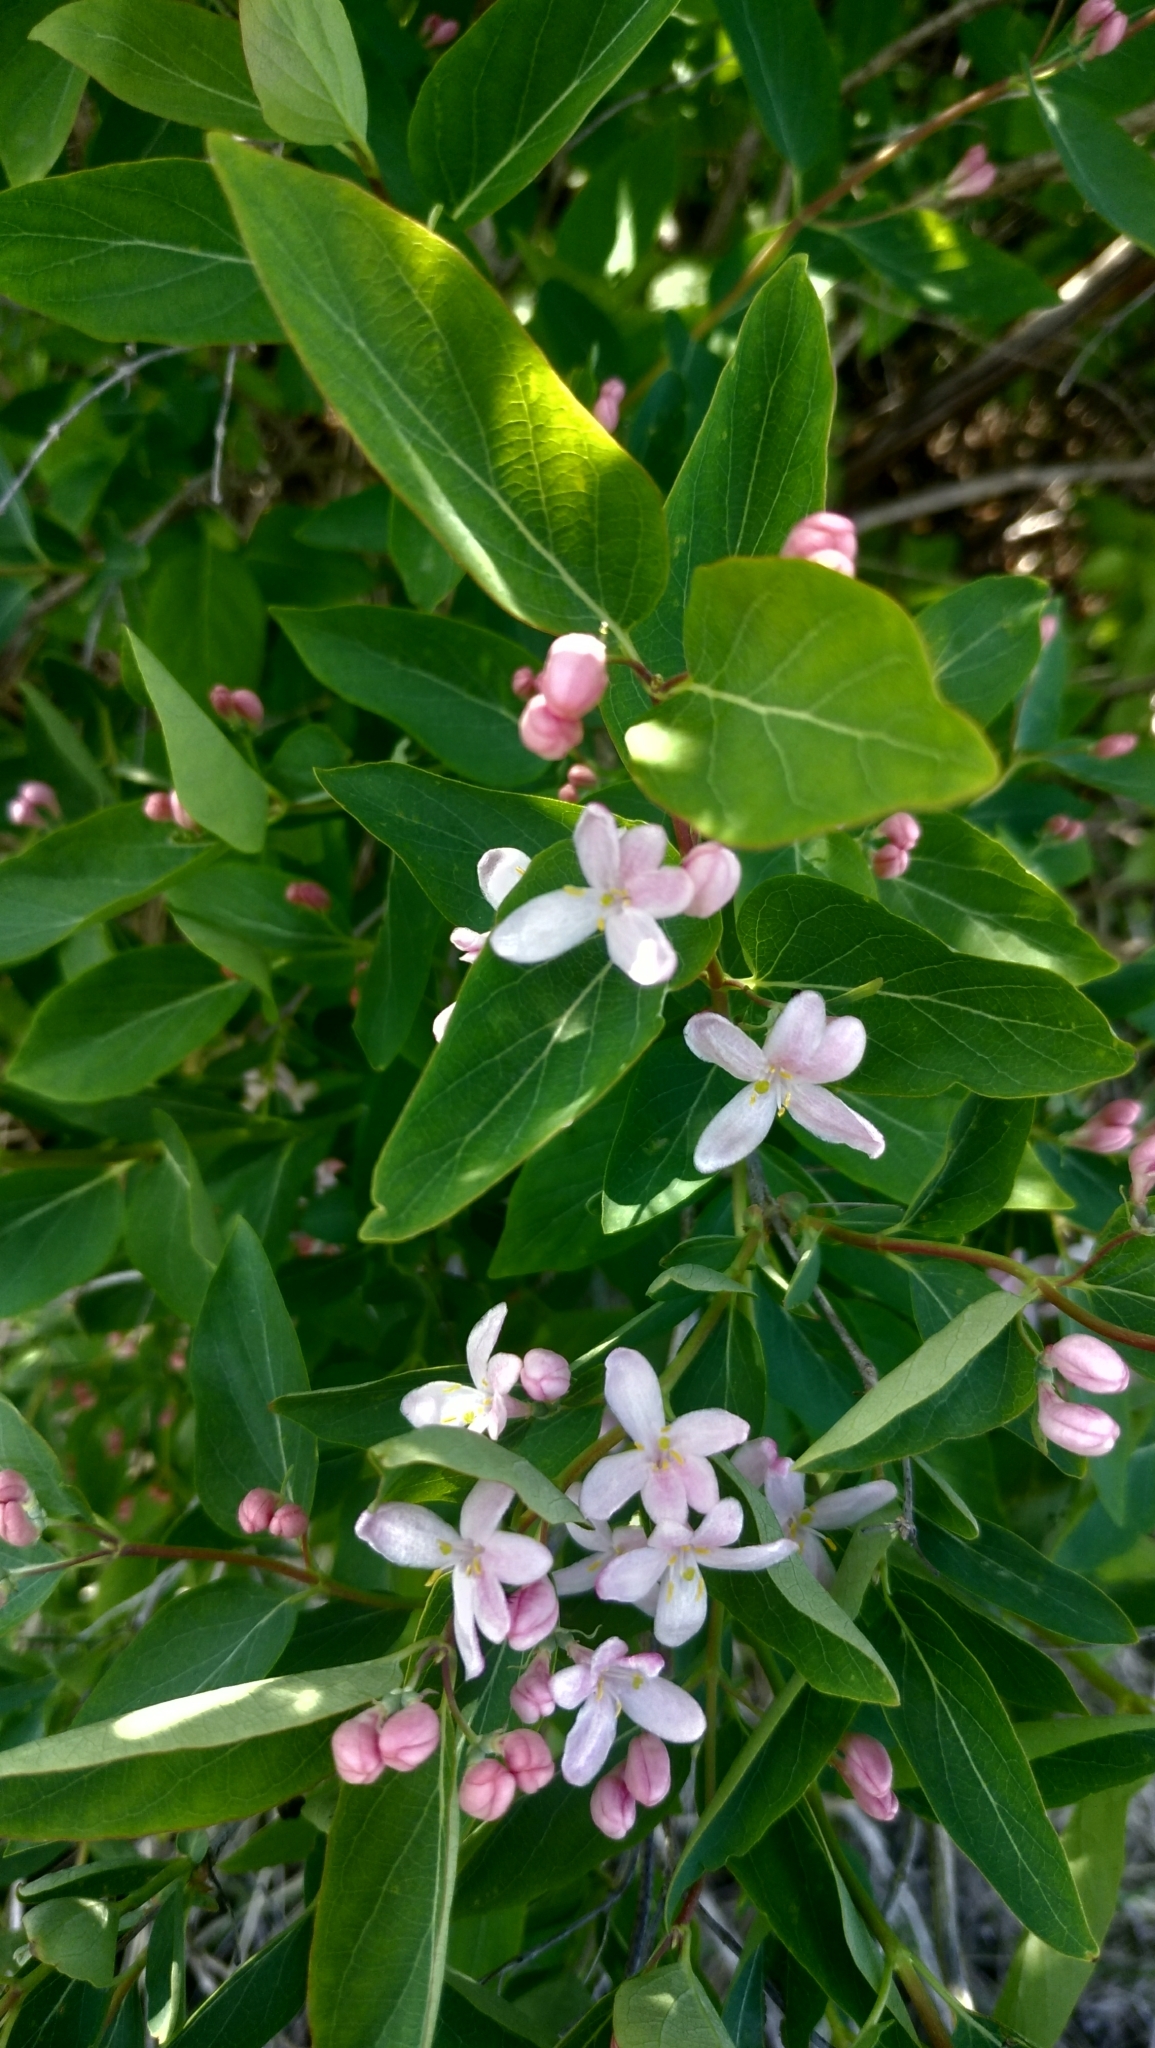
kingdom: Plantae
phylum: Tracheophyta
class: Magnoliopsida
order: Dipsacales
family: Caprifoliaceae
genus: Lonicera
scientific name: Lonicera tatarica
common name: Tatarian honeysuckle
